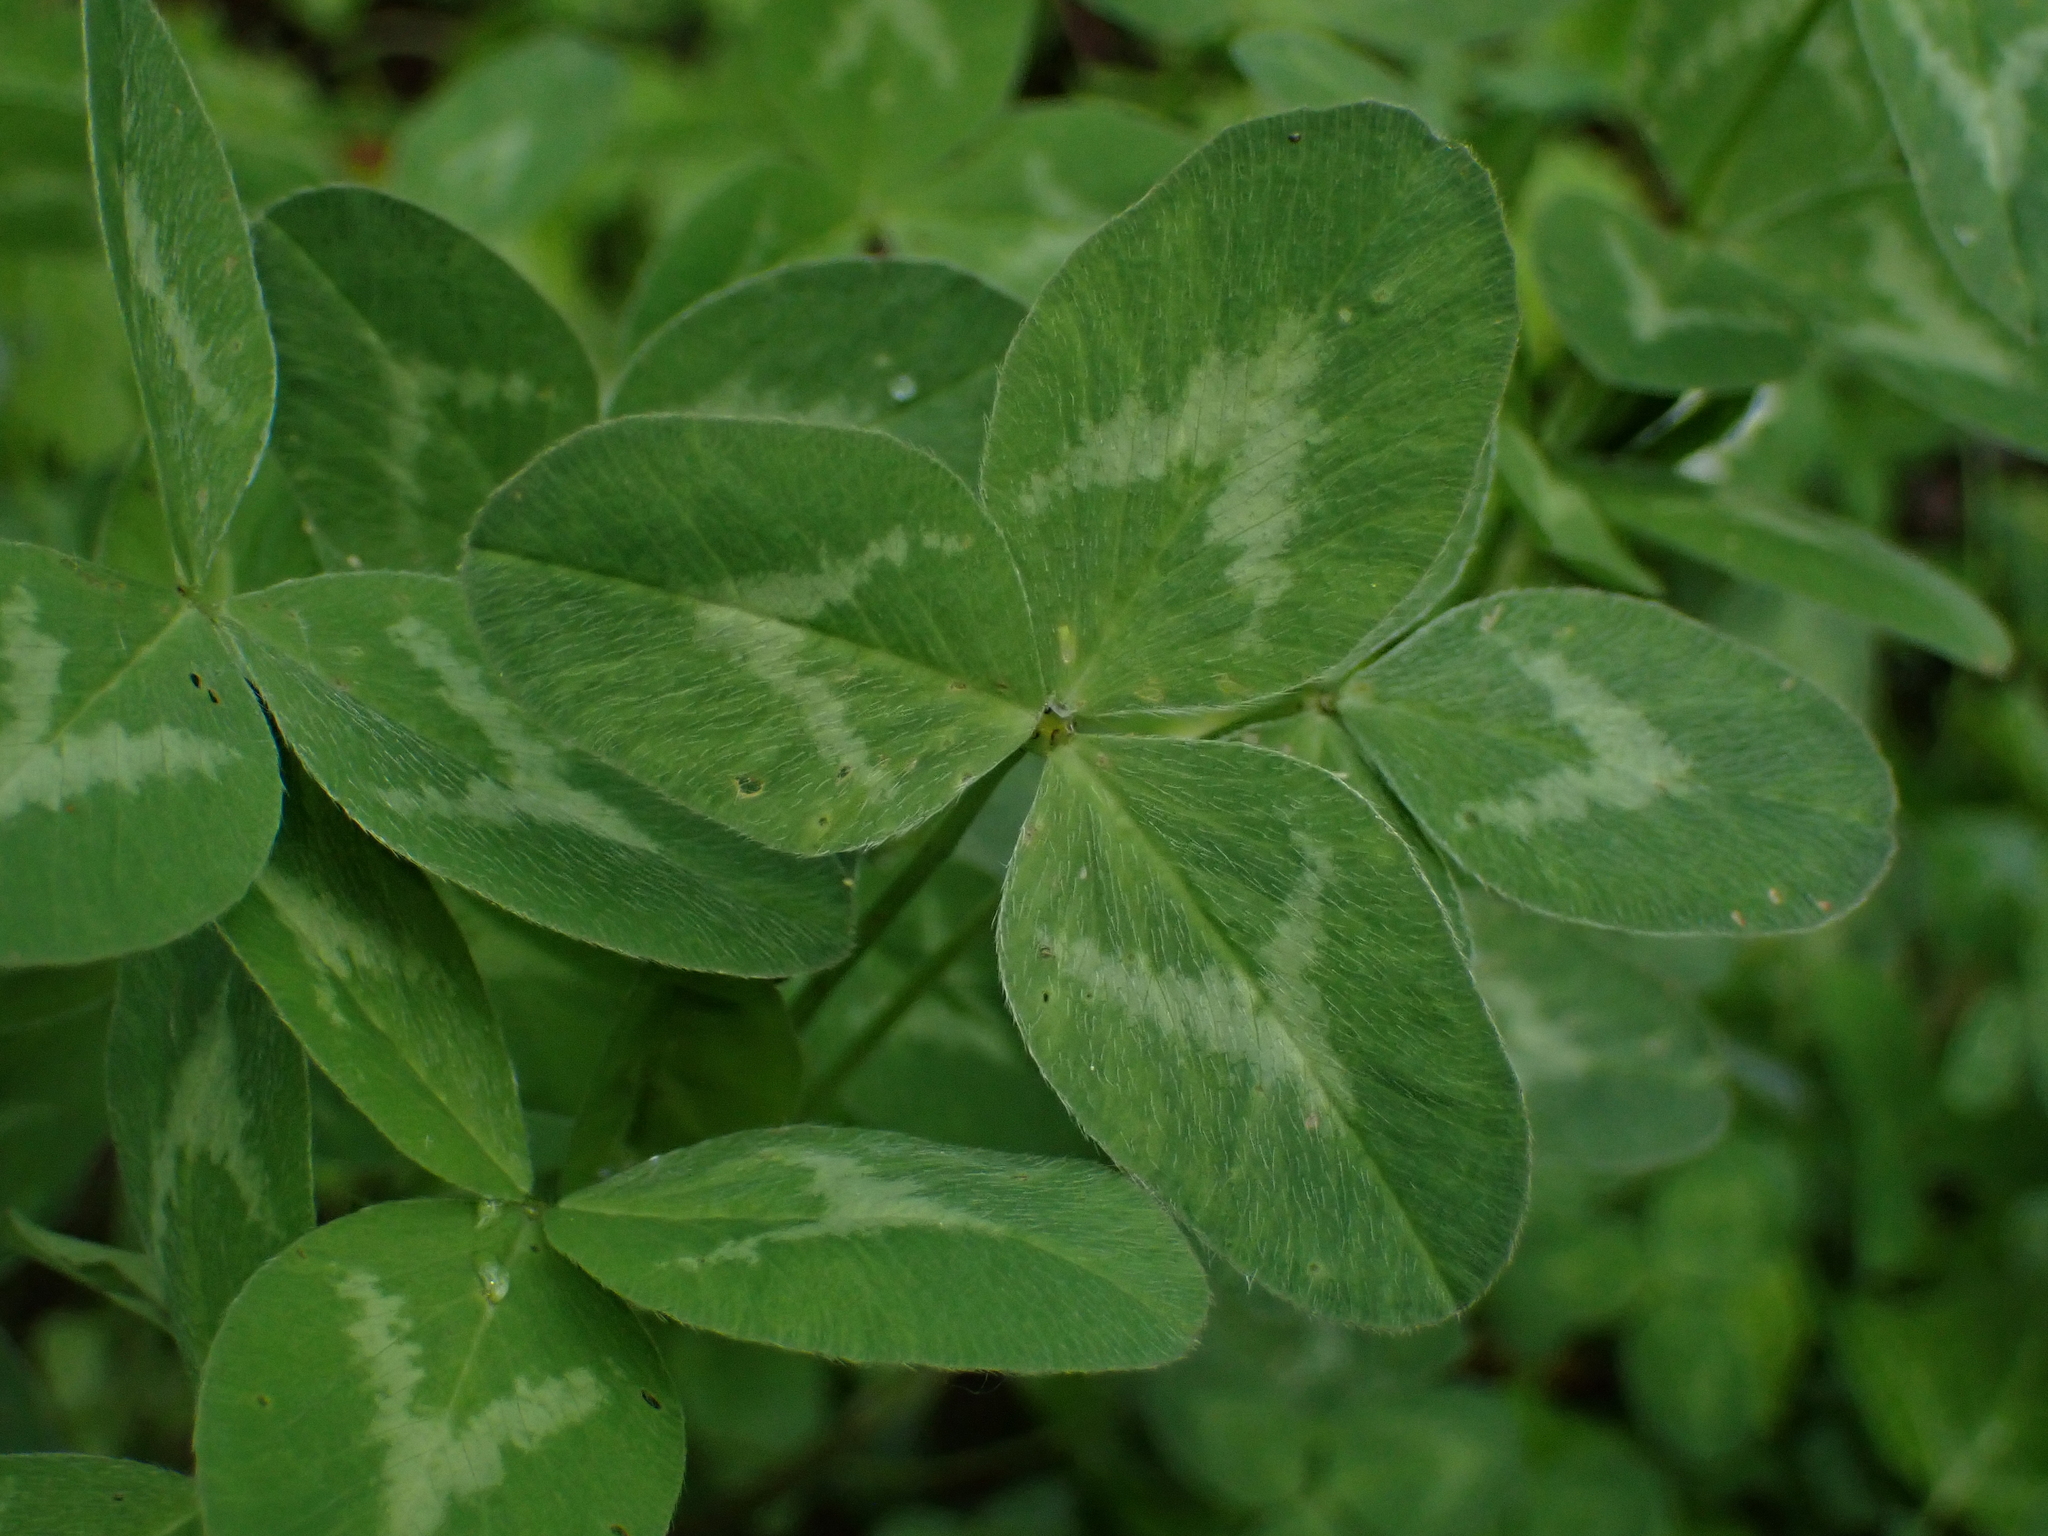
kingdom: Plantae
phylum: Tracheophyta
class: Magnoliopsida
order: Fabales
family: Fabaceae
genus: Trifolium
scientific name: Trifolium pratense
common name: Red clover
